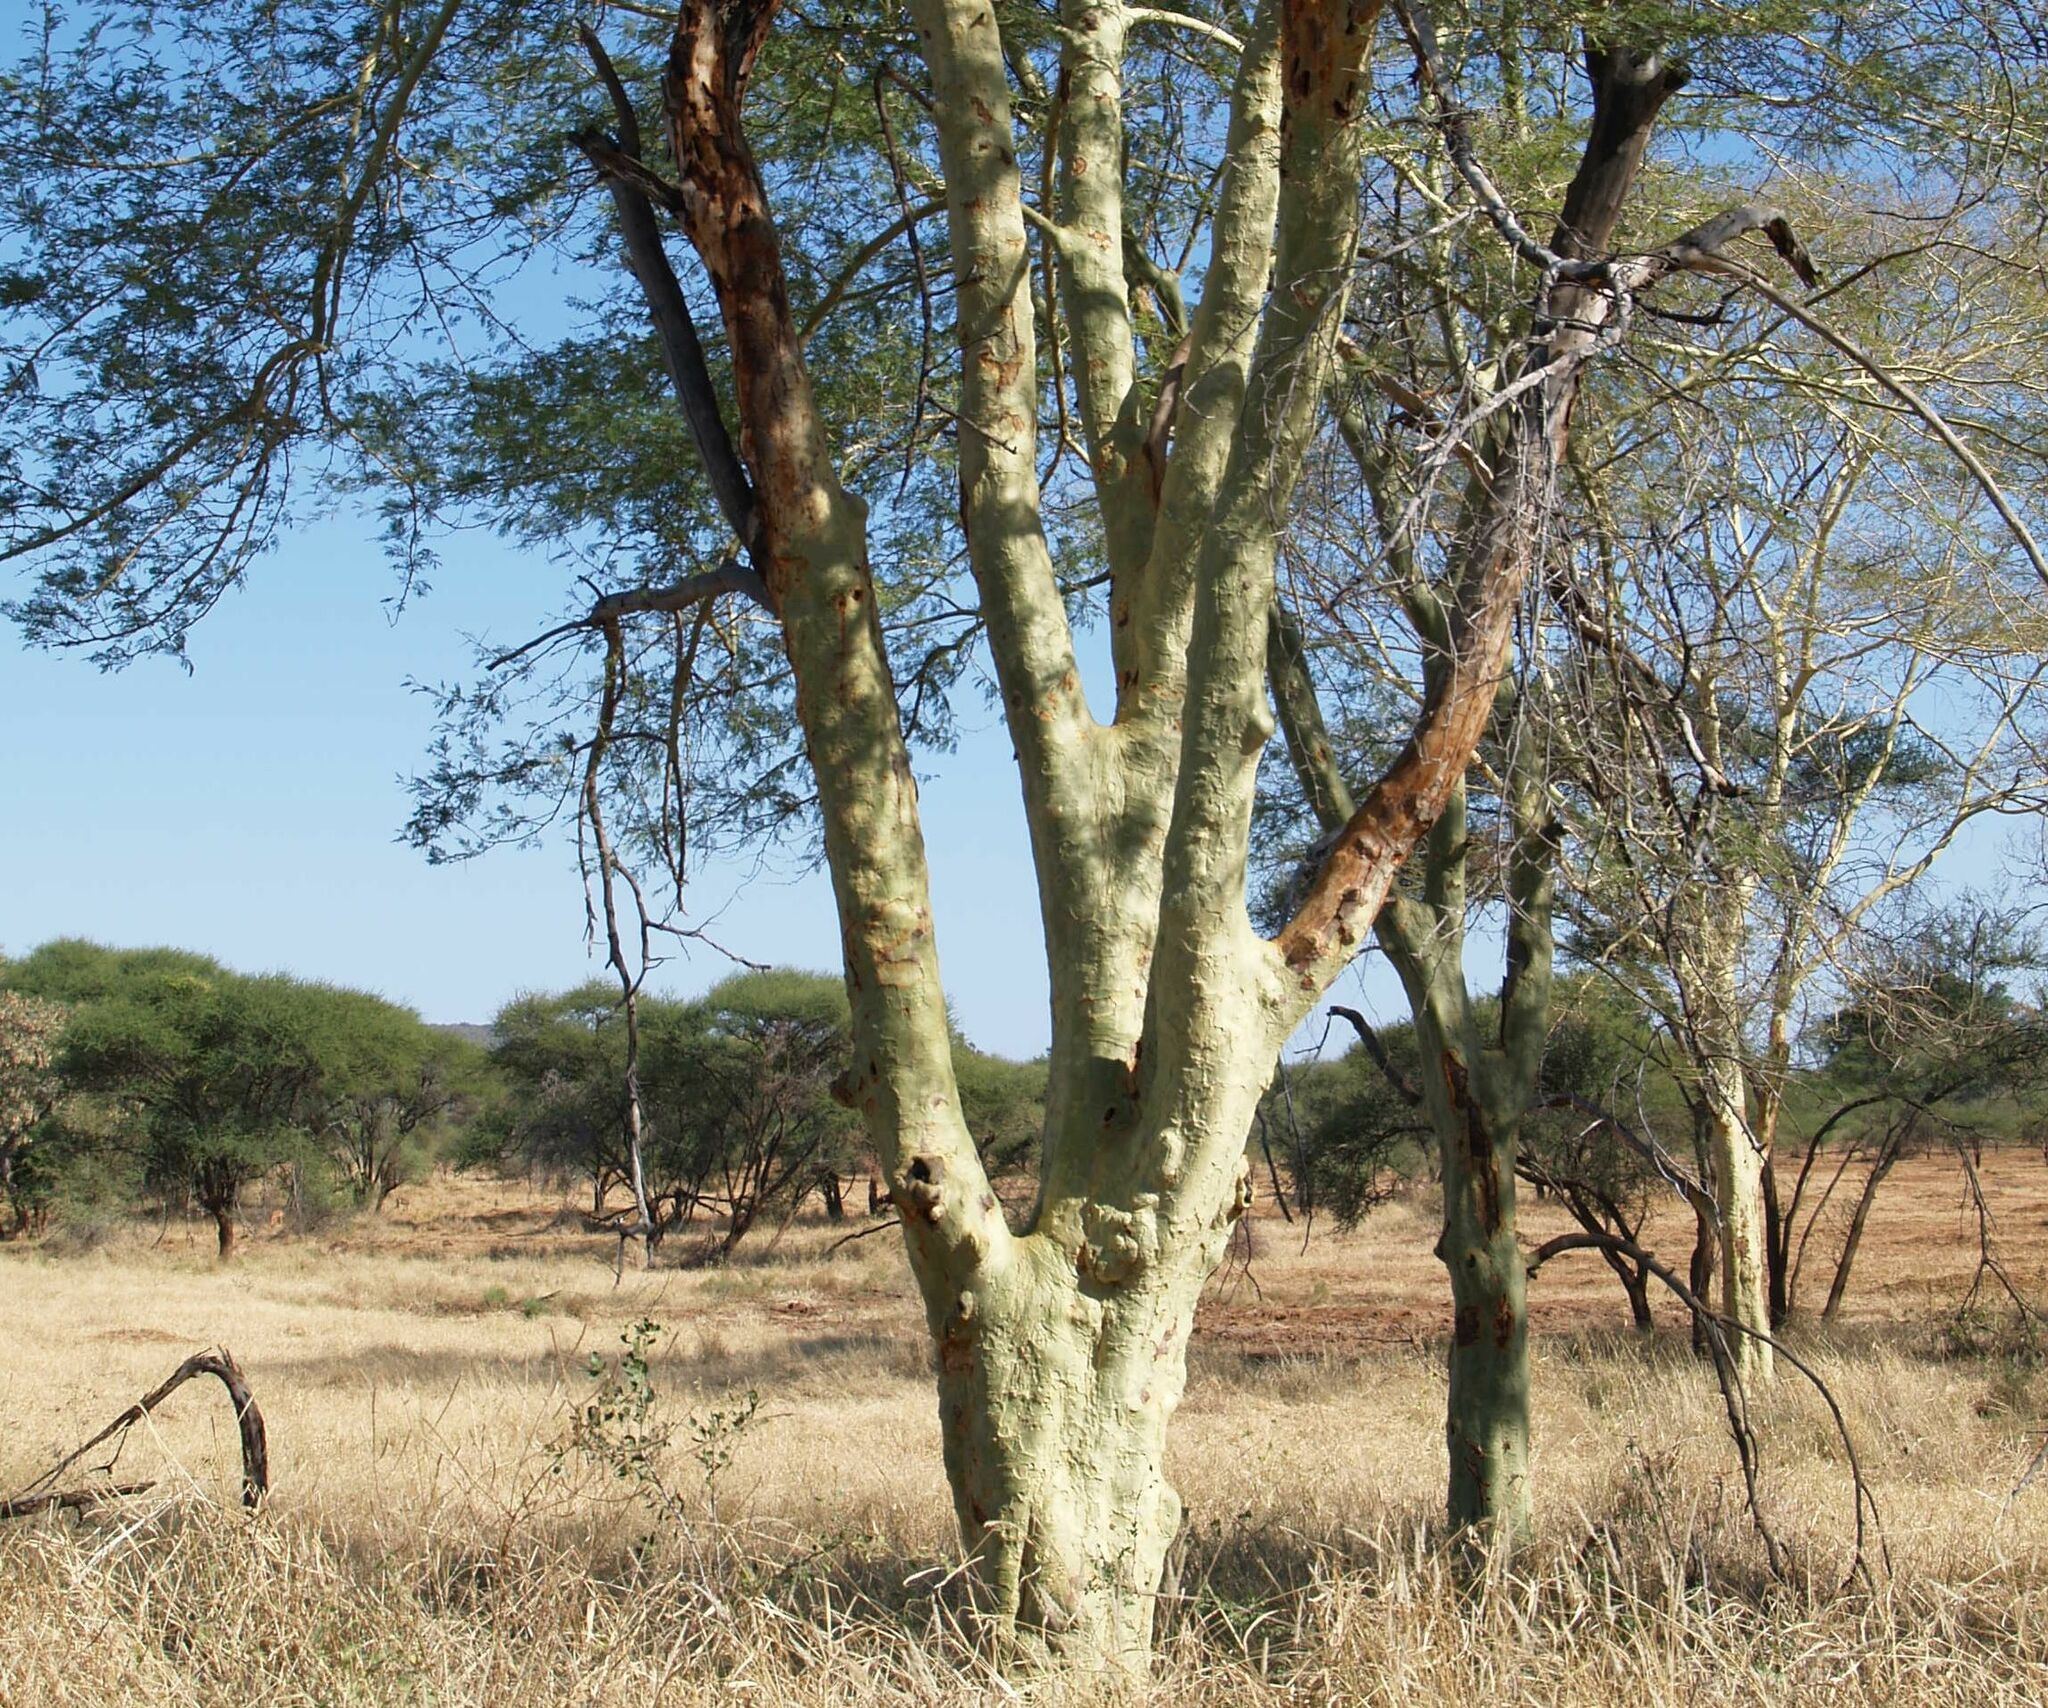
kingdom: Plantae
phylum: Tracheophyta
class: Magnoliopsida
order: Fabales
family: Fabaceae
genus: Vachellia
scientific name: Vachellia xanthophloea
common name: Fever tree
